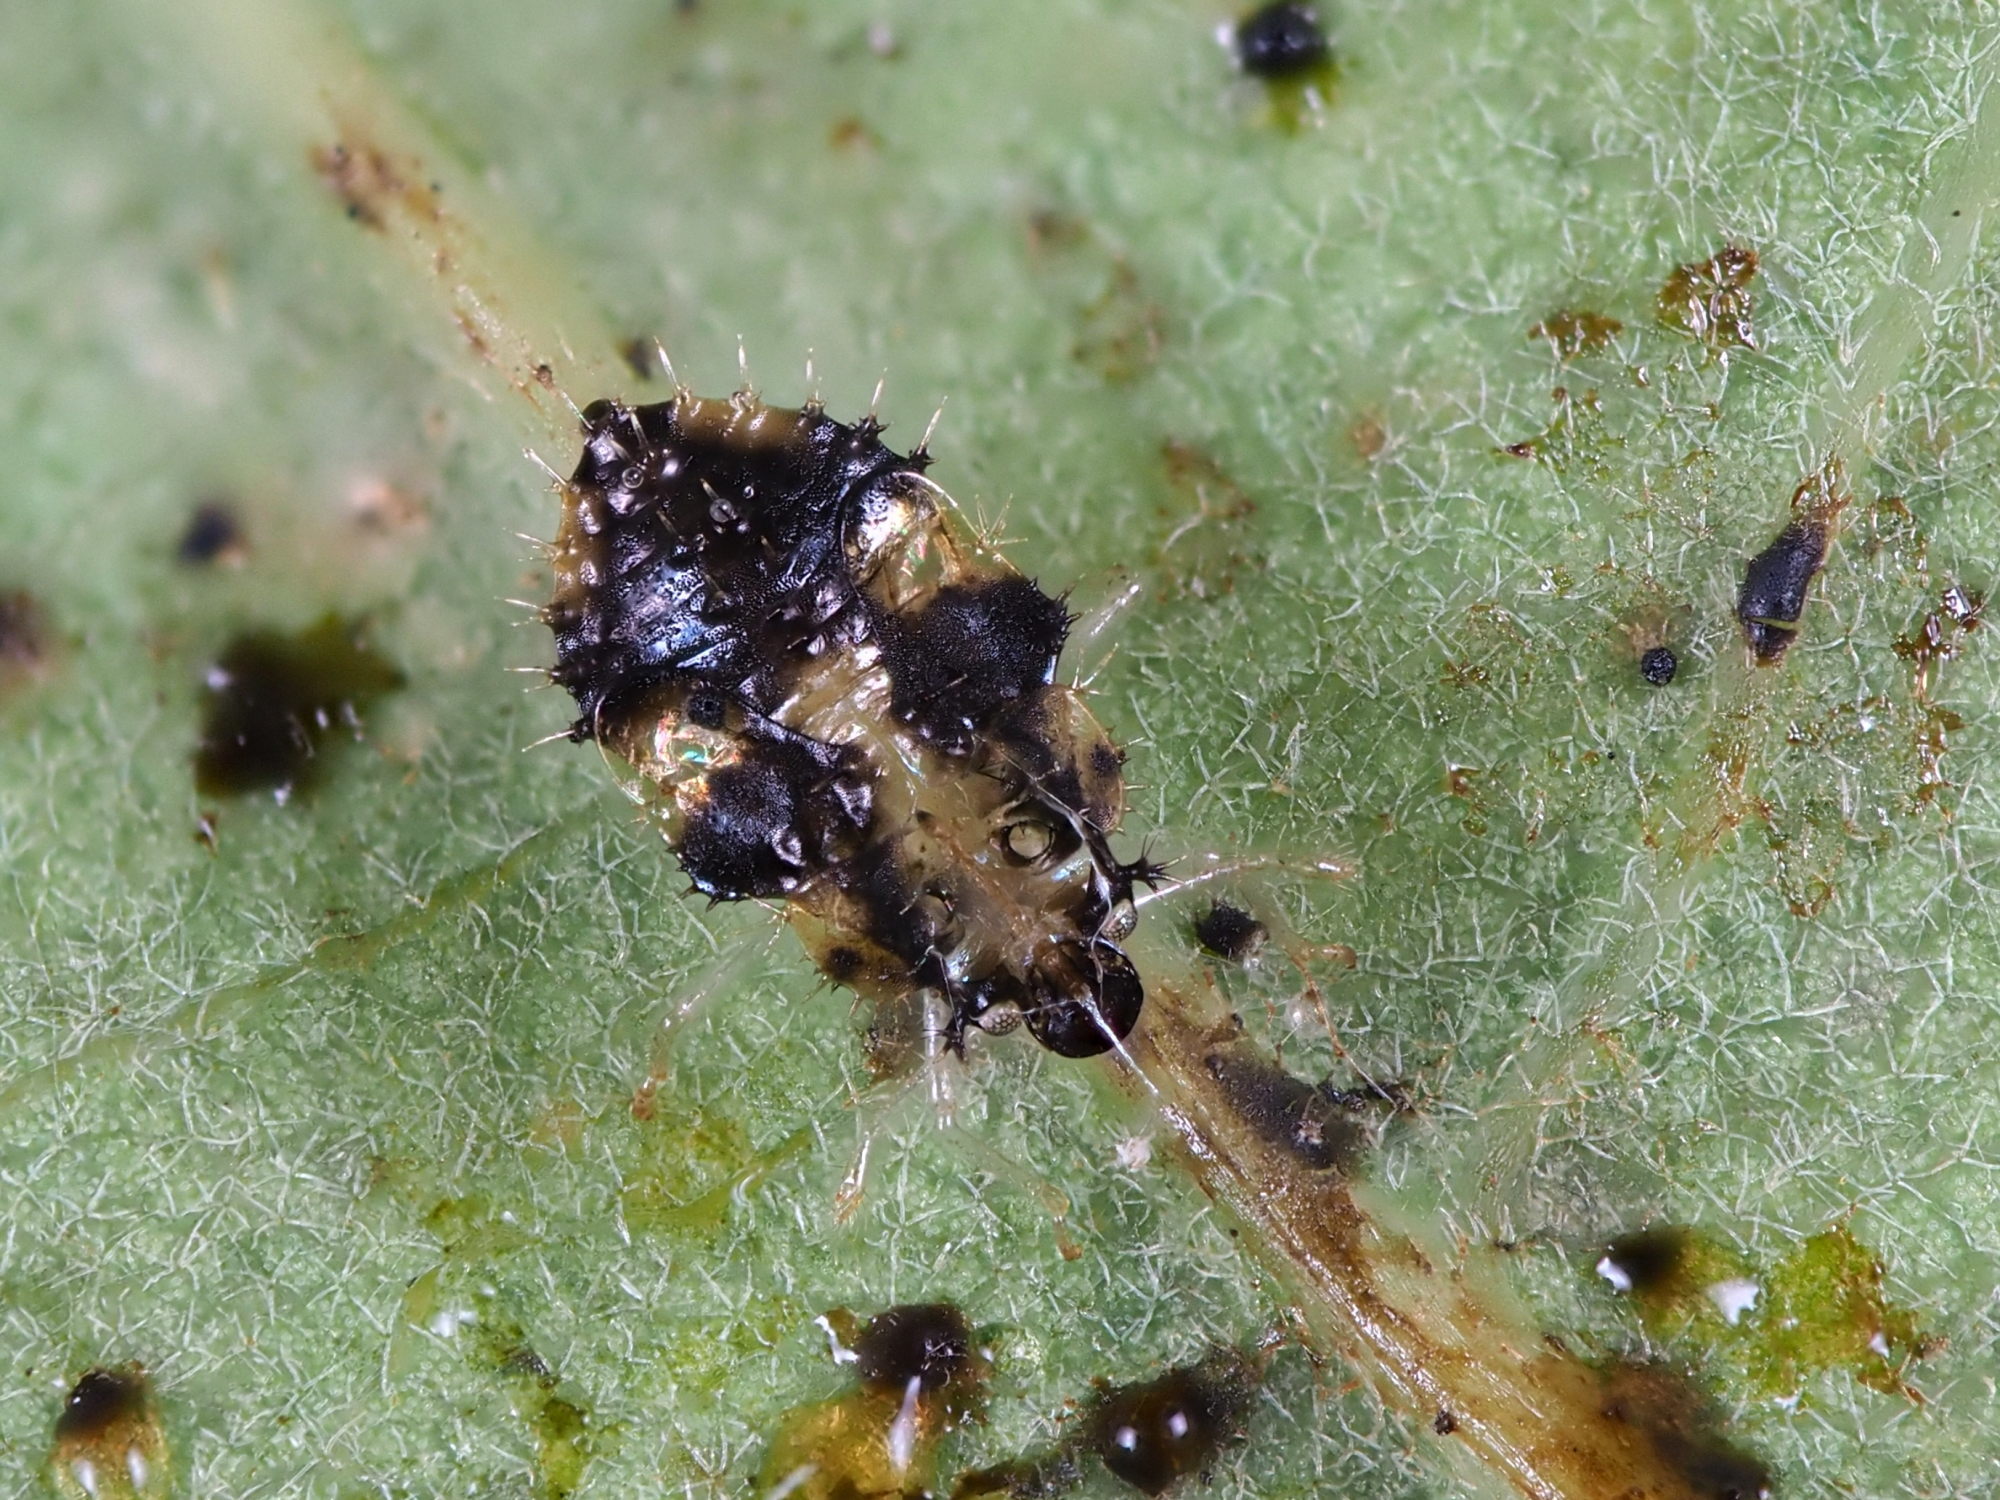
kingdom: Animalia
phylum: Arthropoda
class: Insecta
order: Hemiptera
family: Tingidae
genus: Corythucha
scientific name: Corythucha arcuata
